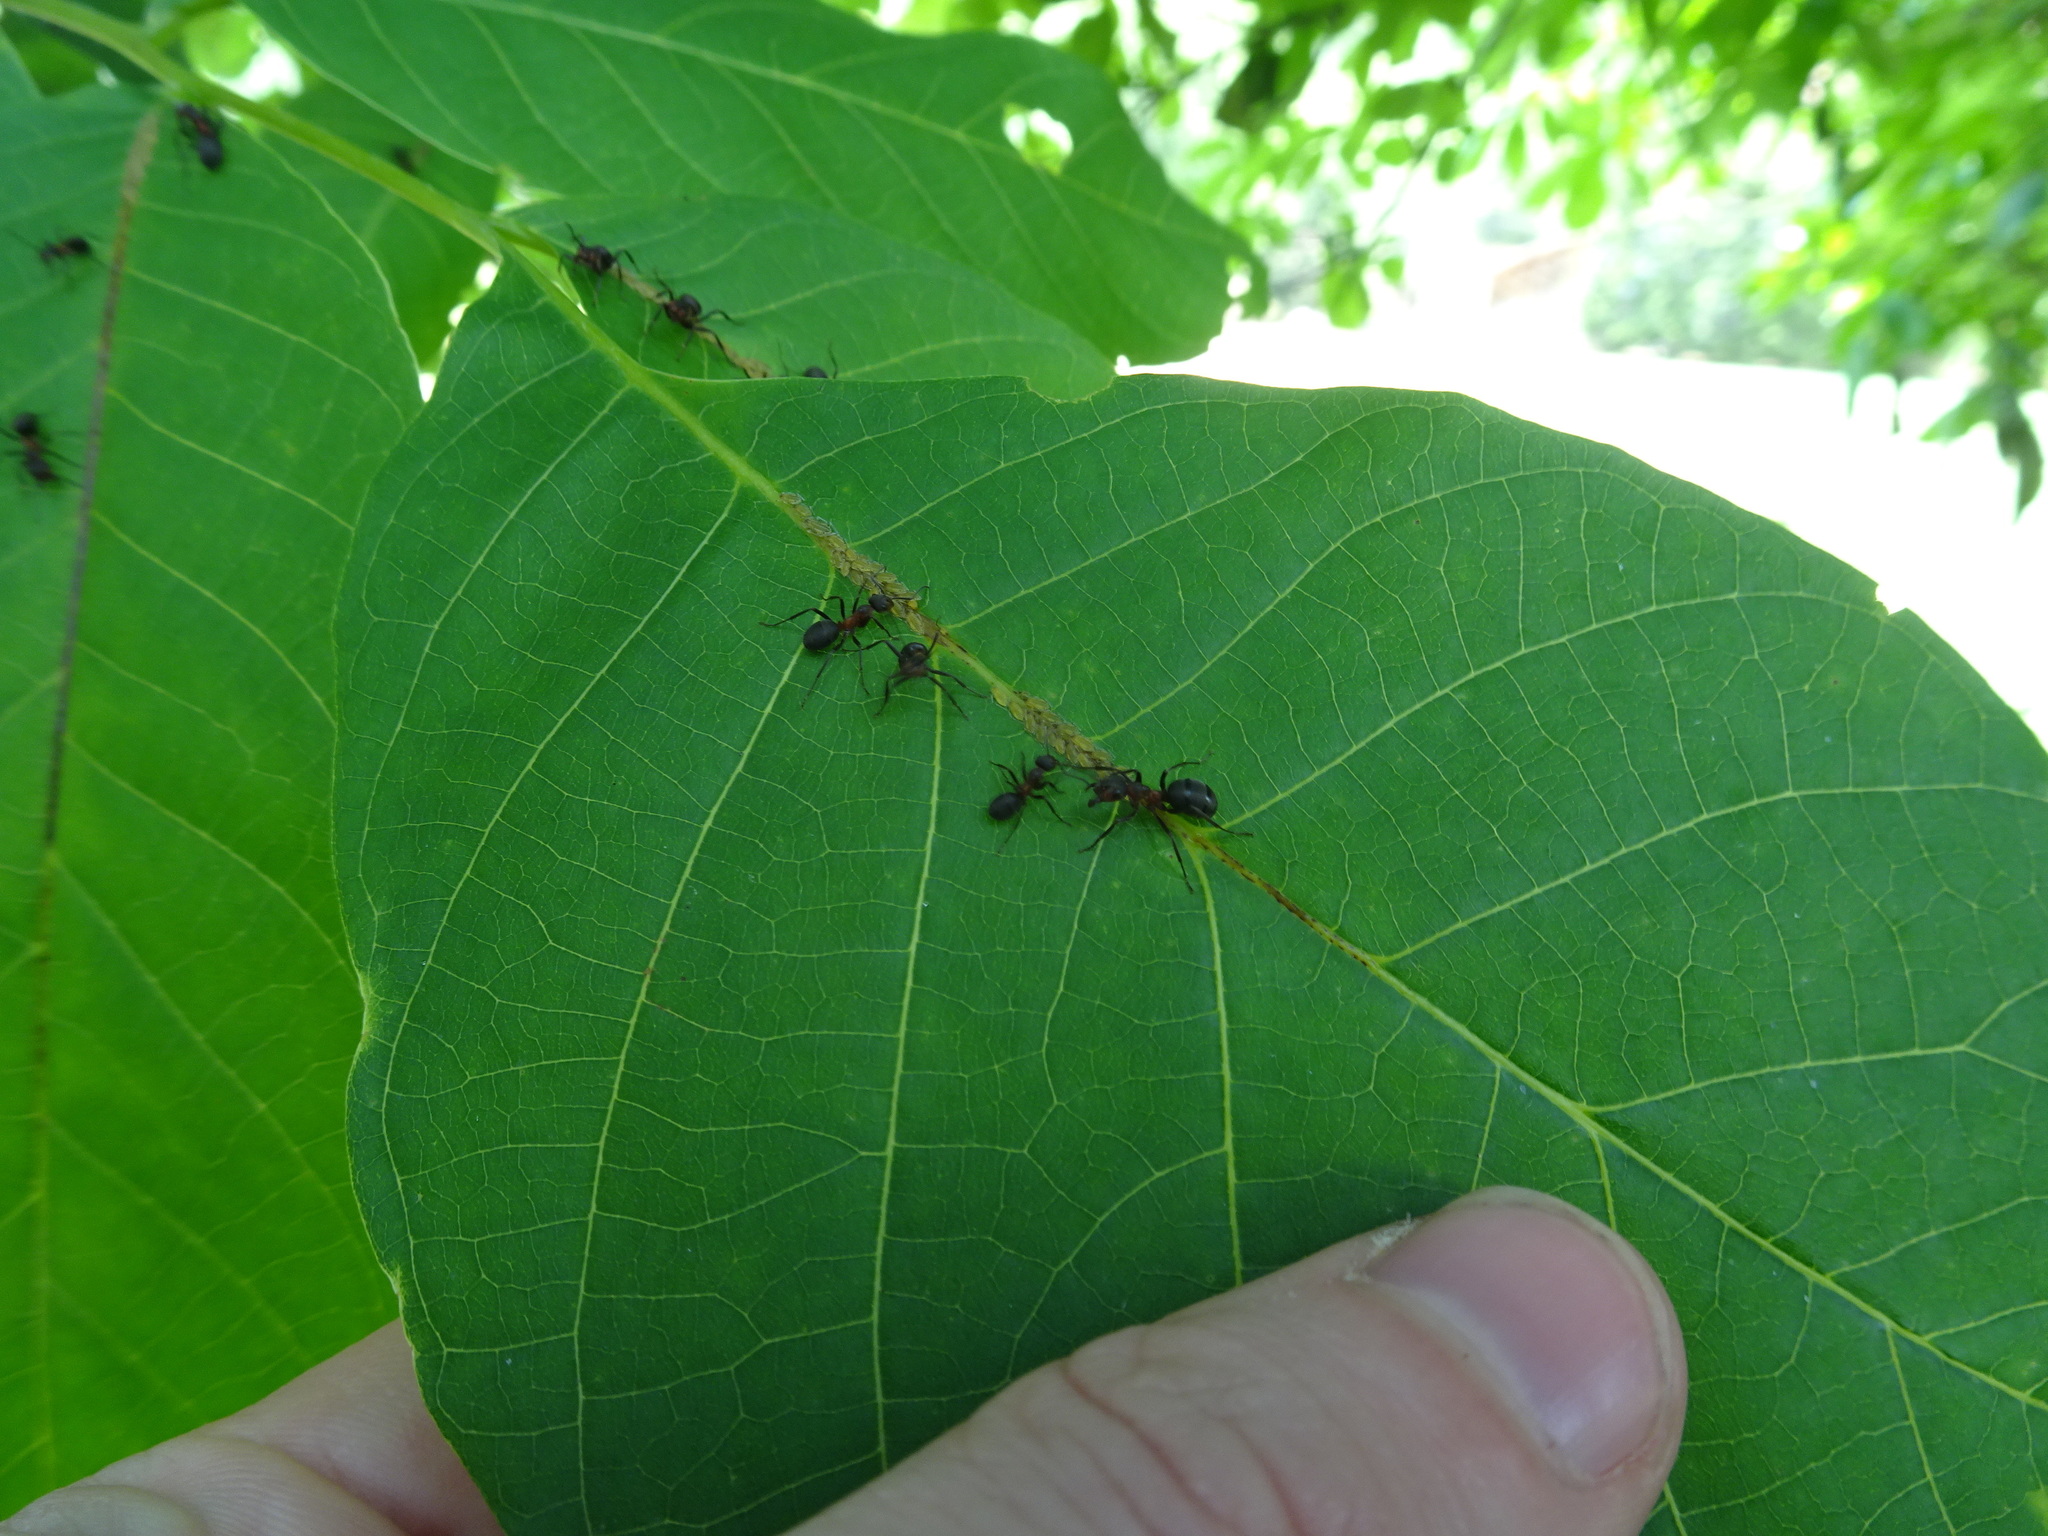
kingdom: Animalia
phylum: Arthropoda
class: Insecta
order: Hymenoptera
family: Formicidae
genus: Formica
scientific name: Formica pratensis
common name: European red wood ant
